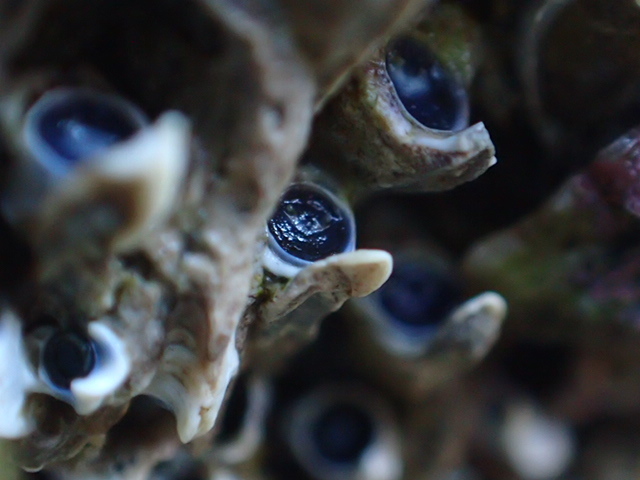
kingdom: Animalia
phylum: Annelida
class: Polychaeta
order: Sabellida
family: Serpulidae
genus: Spirobranchus
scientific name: Spirobranchus cariniferus
